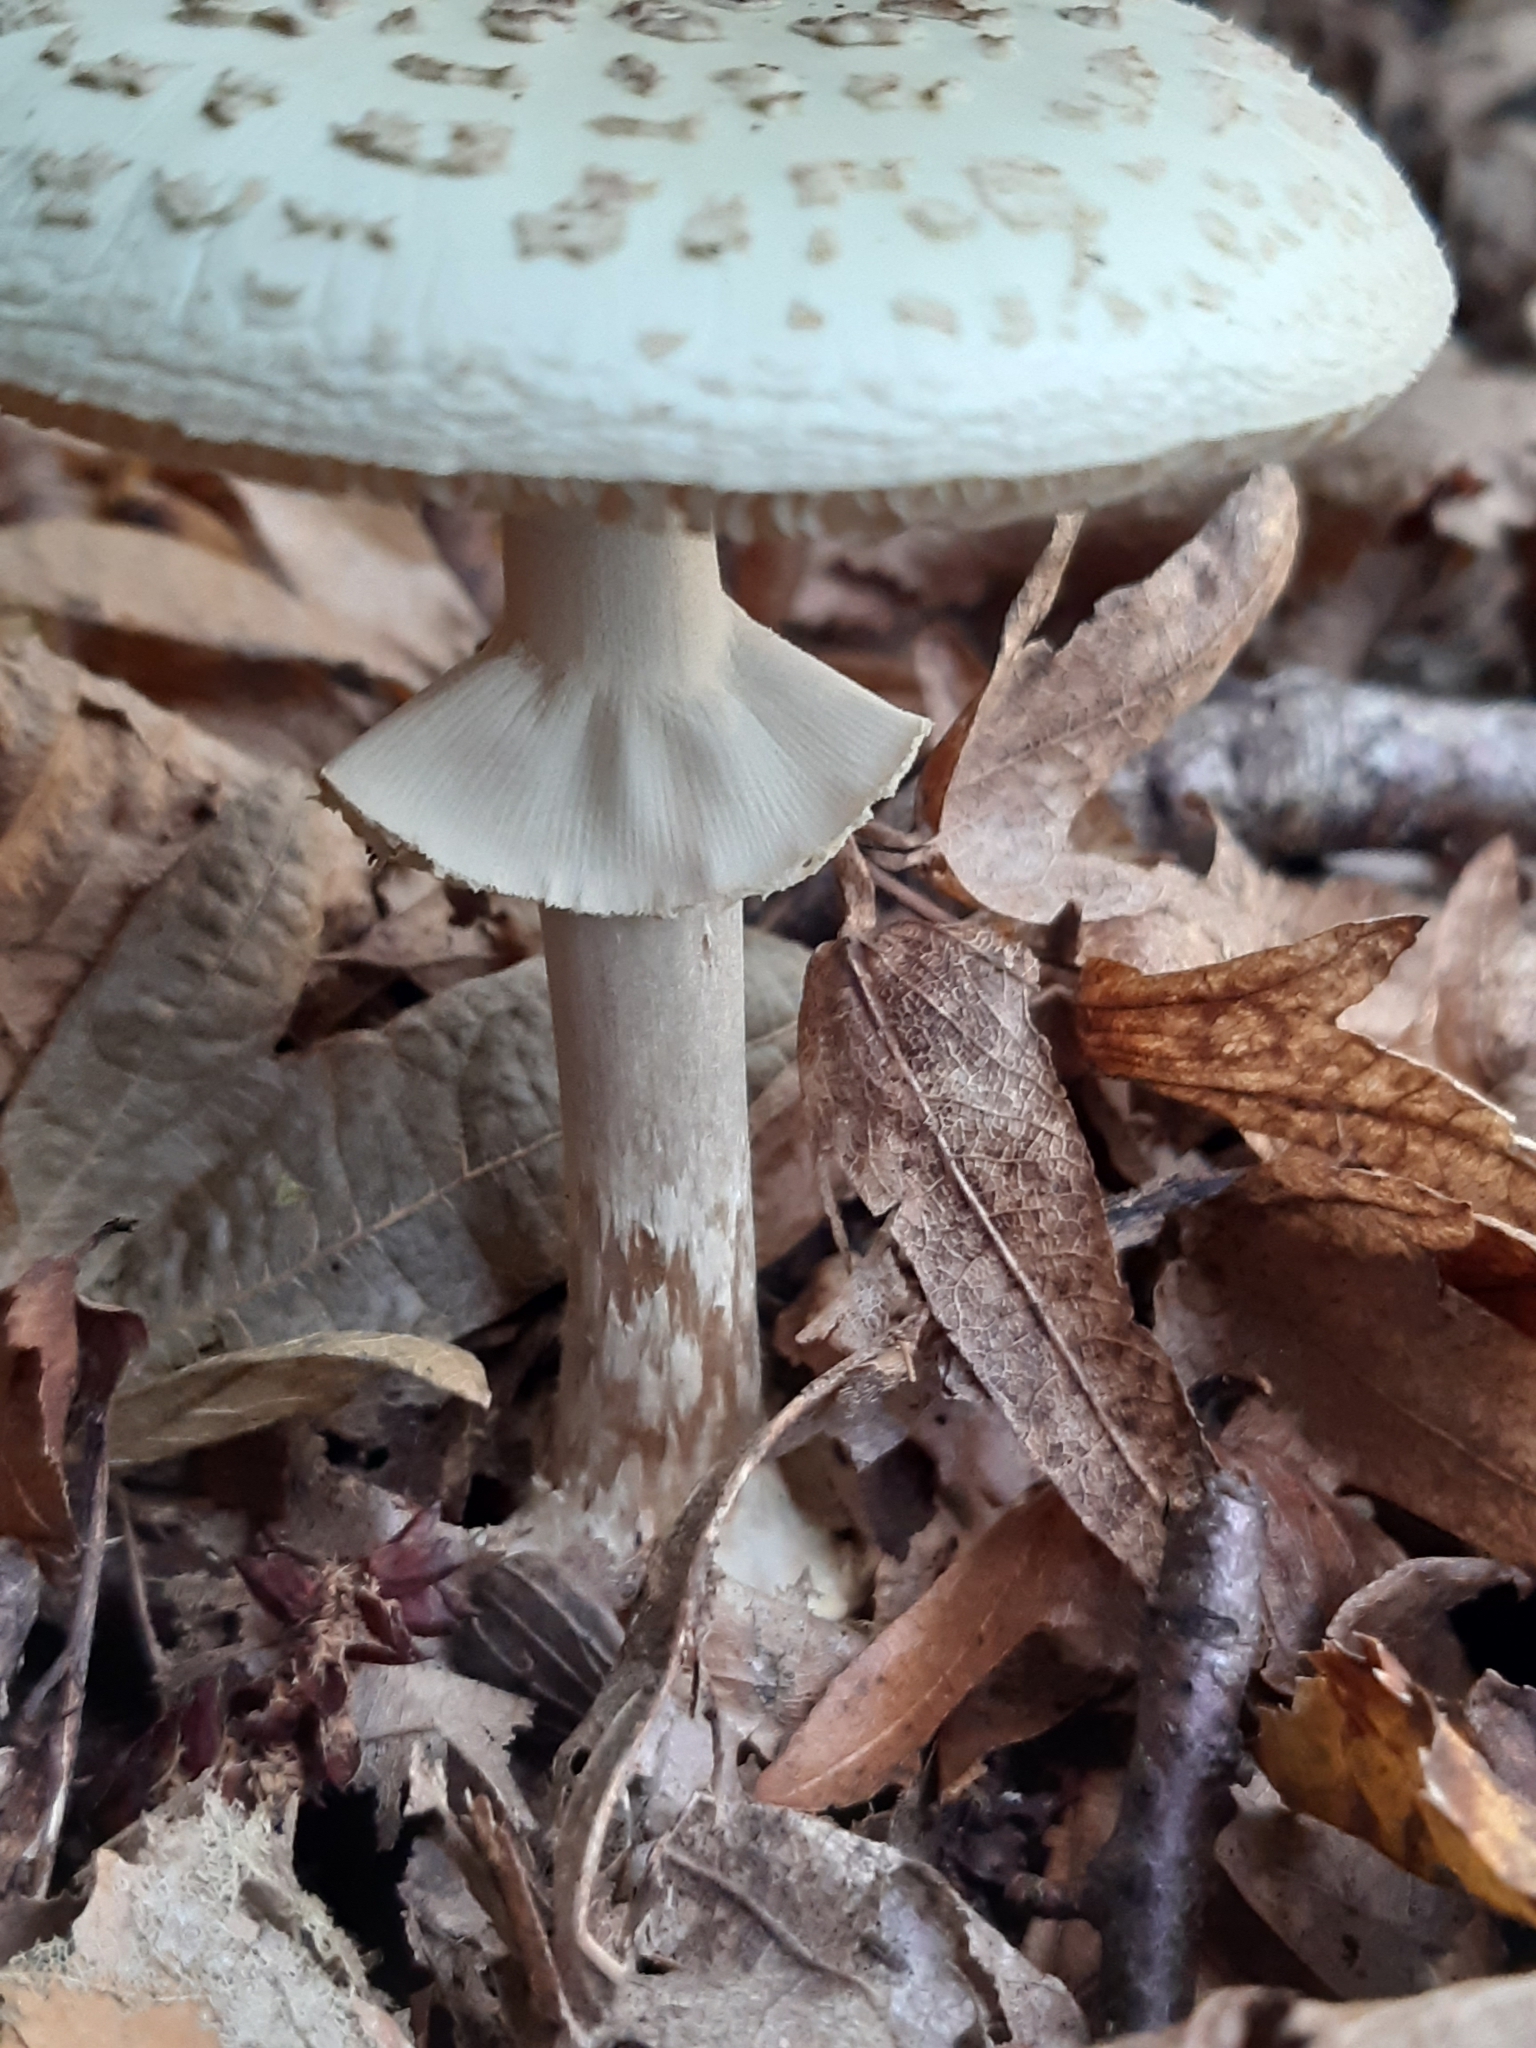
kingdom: Fungi
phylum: Basidiomycota
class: Agaricomycetes
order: Agaricales
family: Amanitaceae
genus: Amanita
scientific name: Amanita citrina
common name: False death-cap
